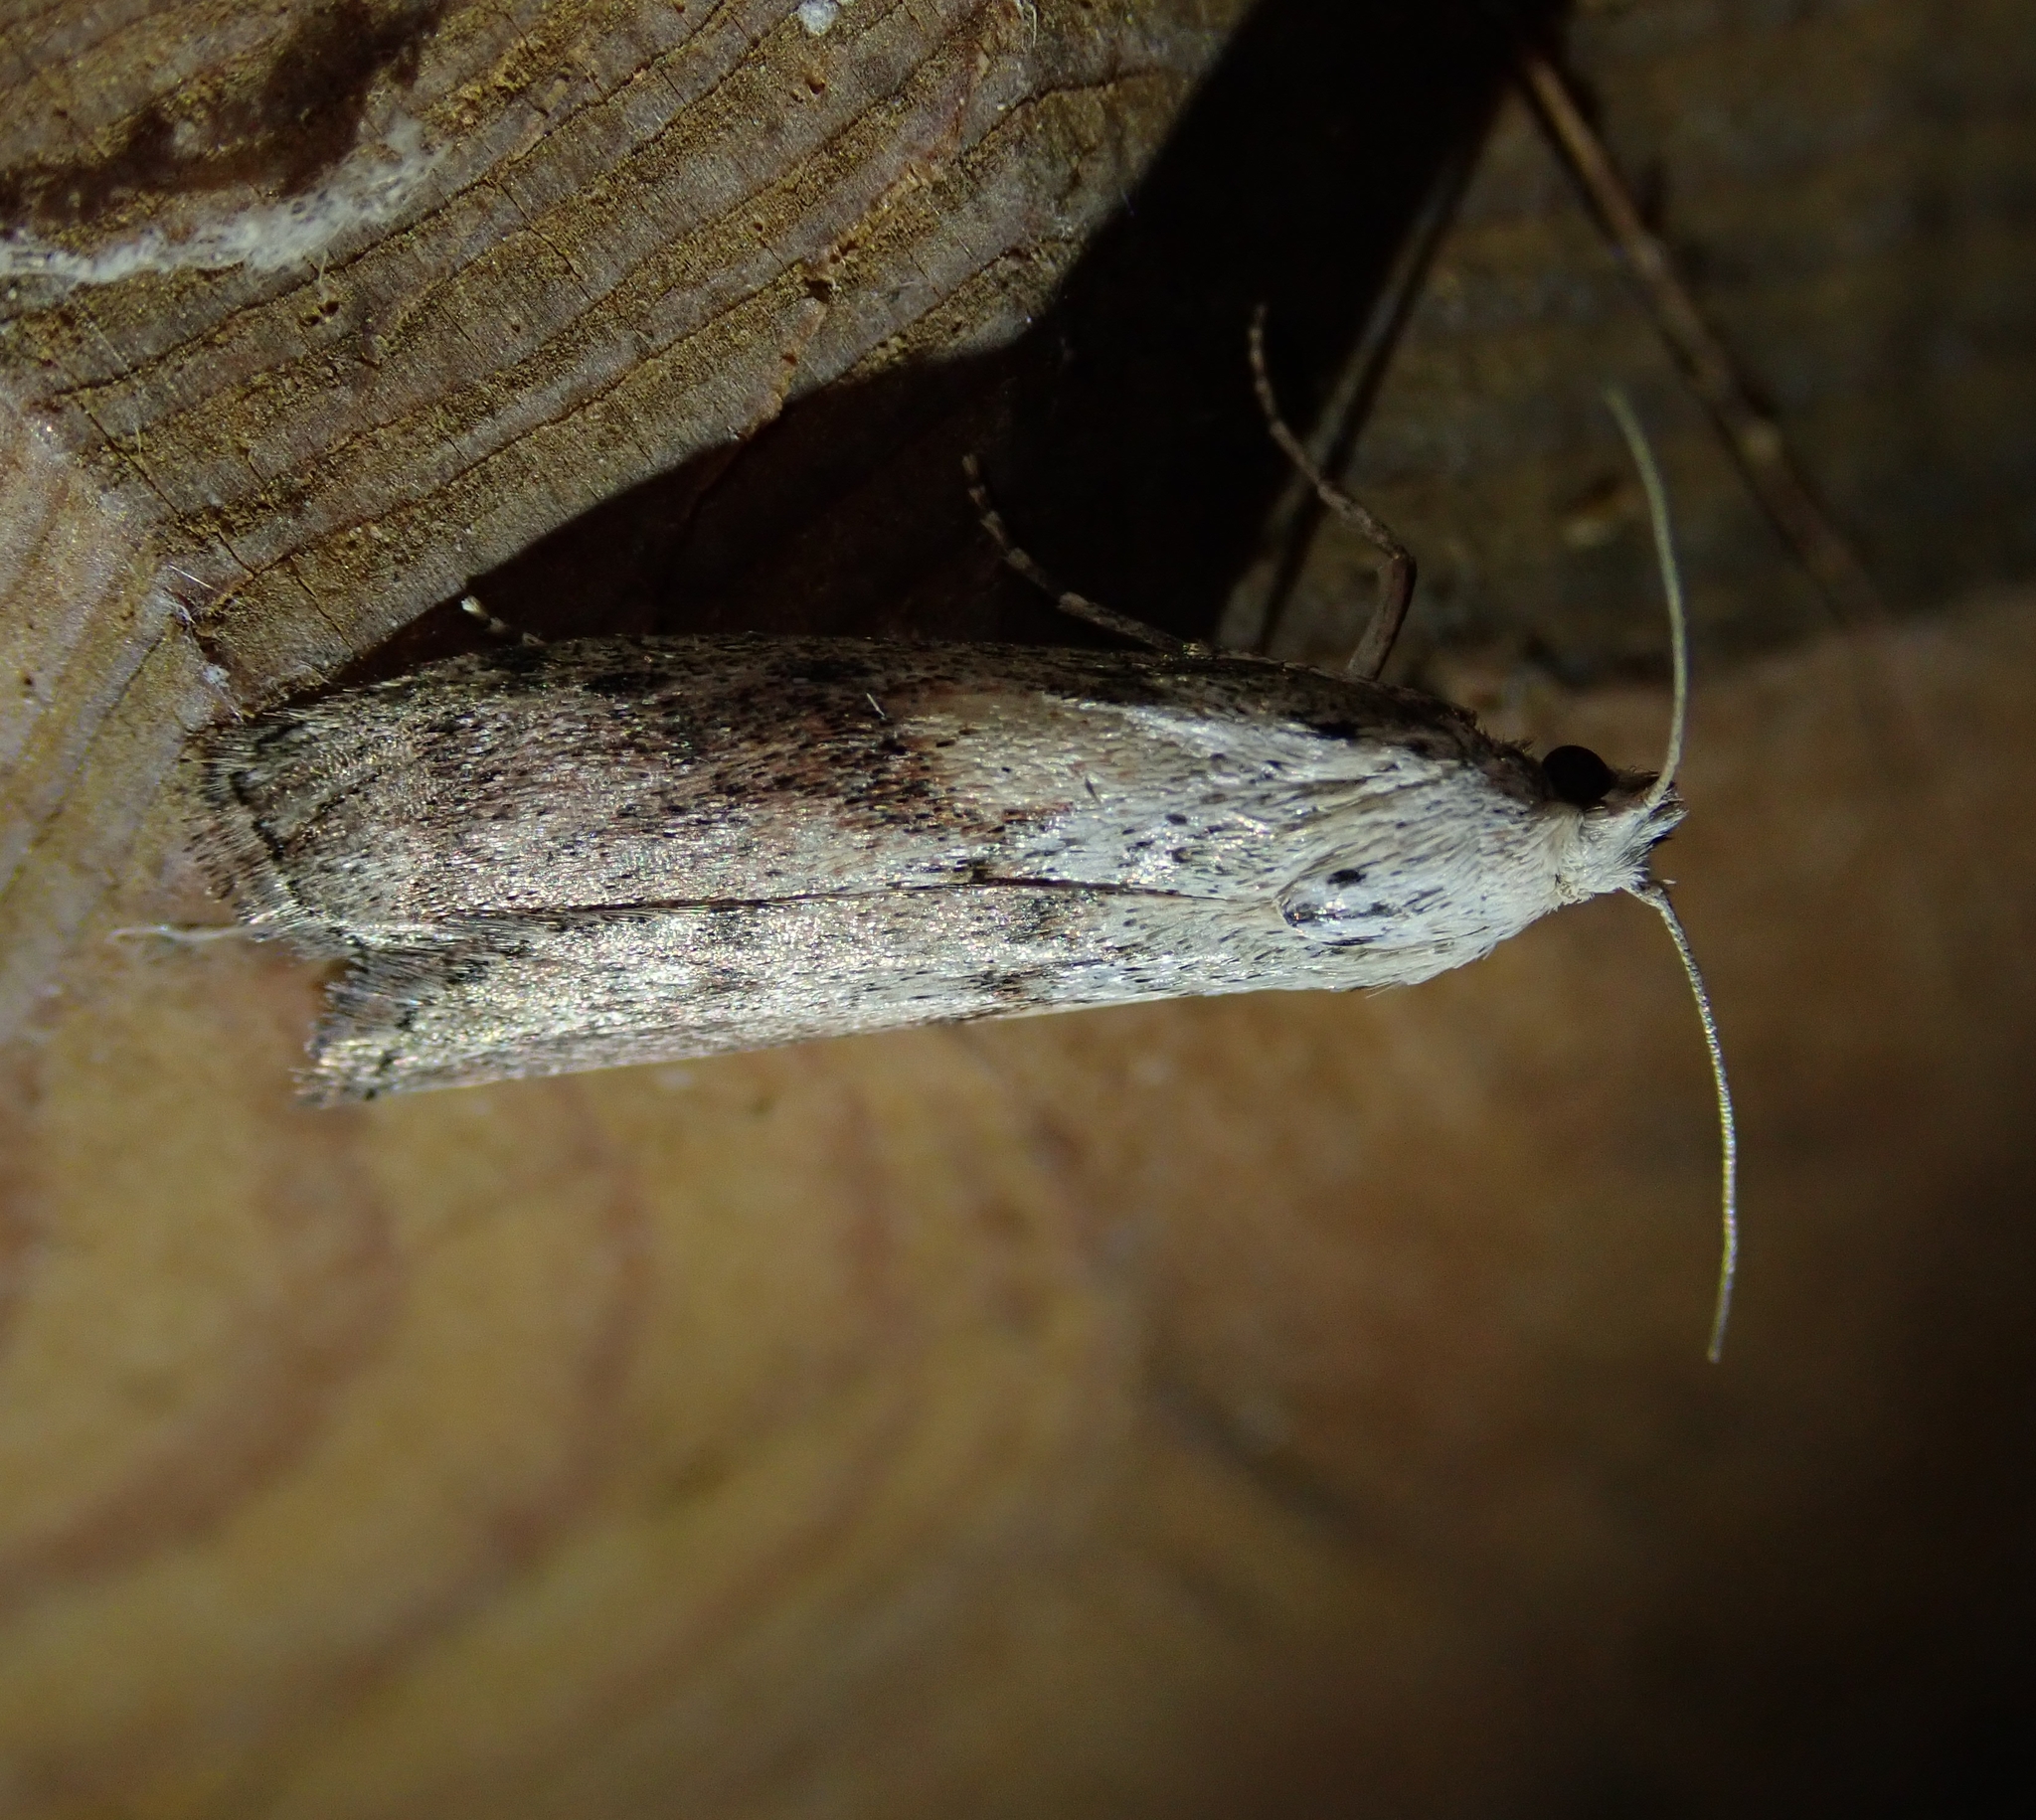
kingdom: Animalia
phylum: Arthropoda
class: Insecta
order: Lepidoptera
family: Pyralidae
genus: Aphomia
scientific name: Aphomia sociella
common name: Bee moth
